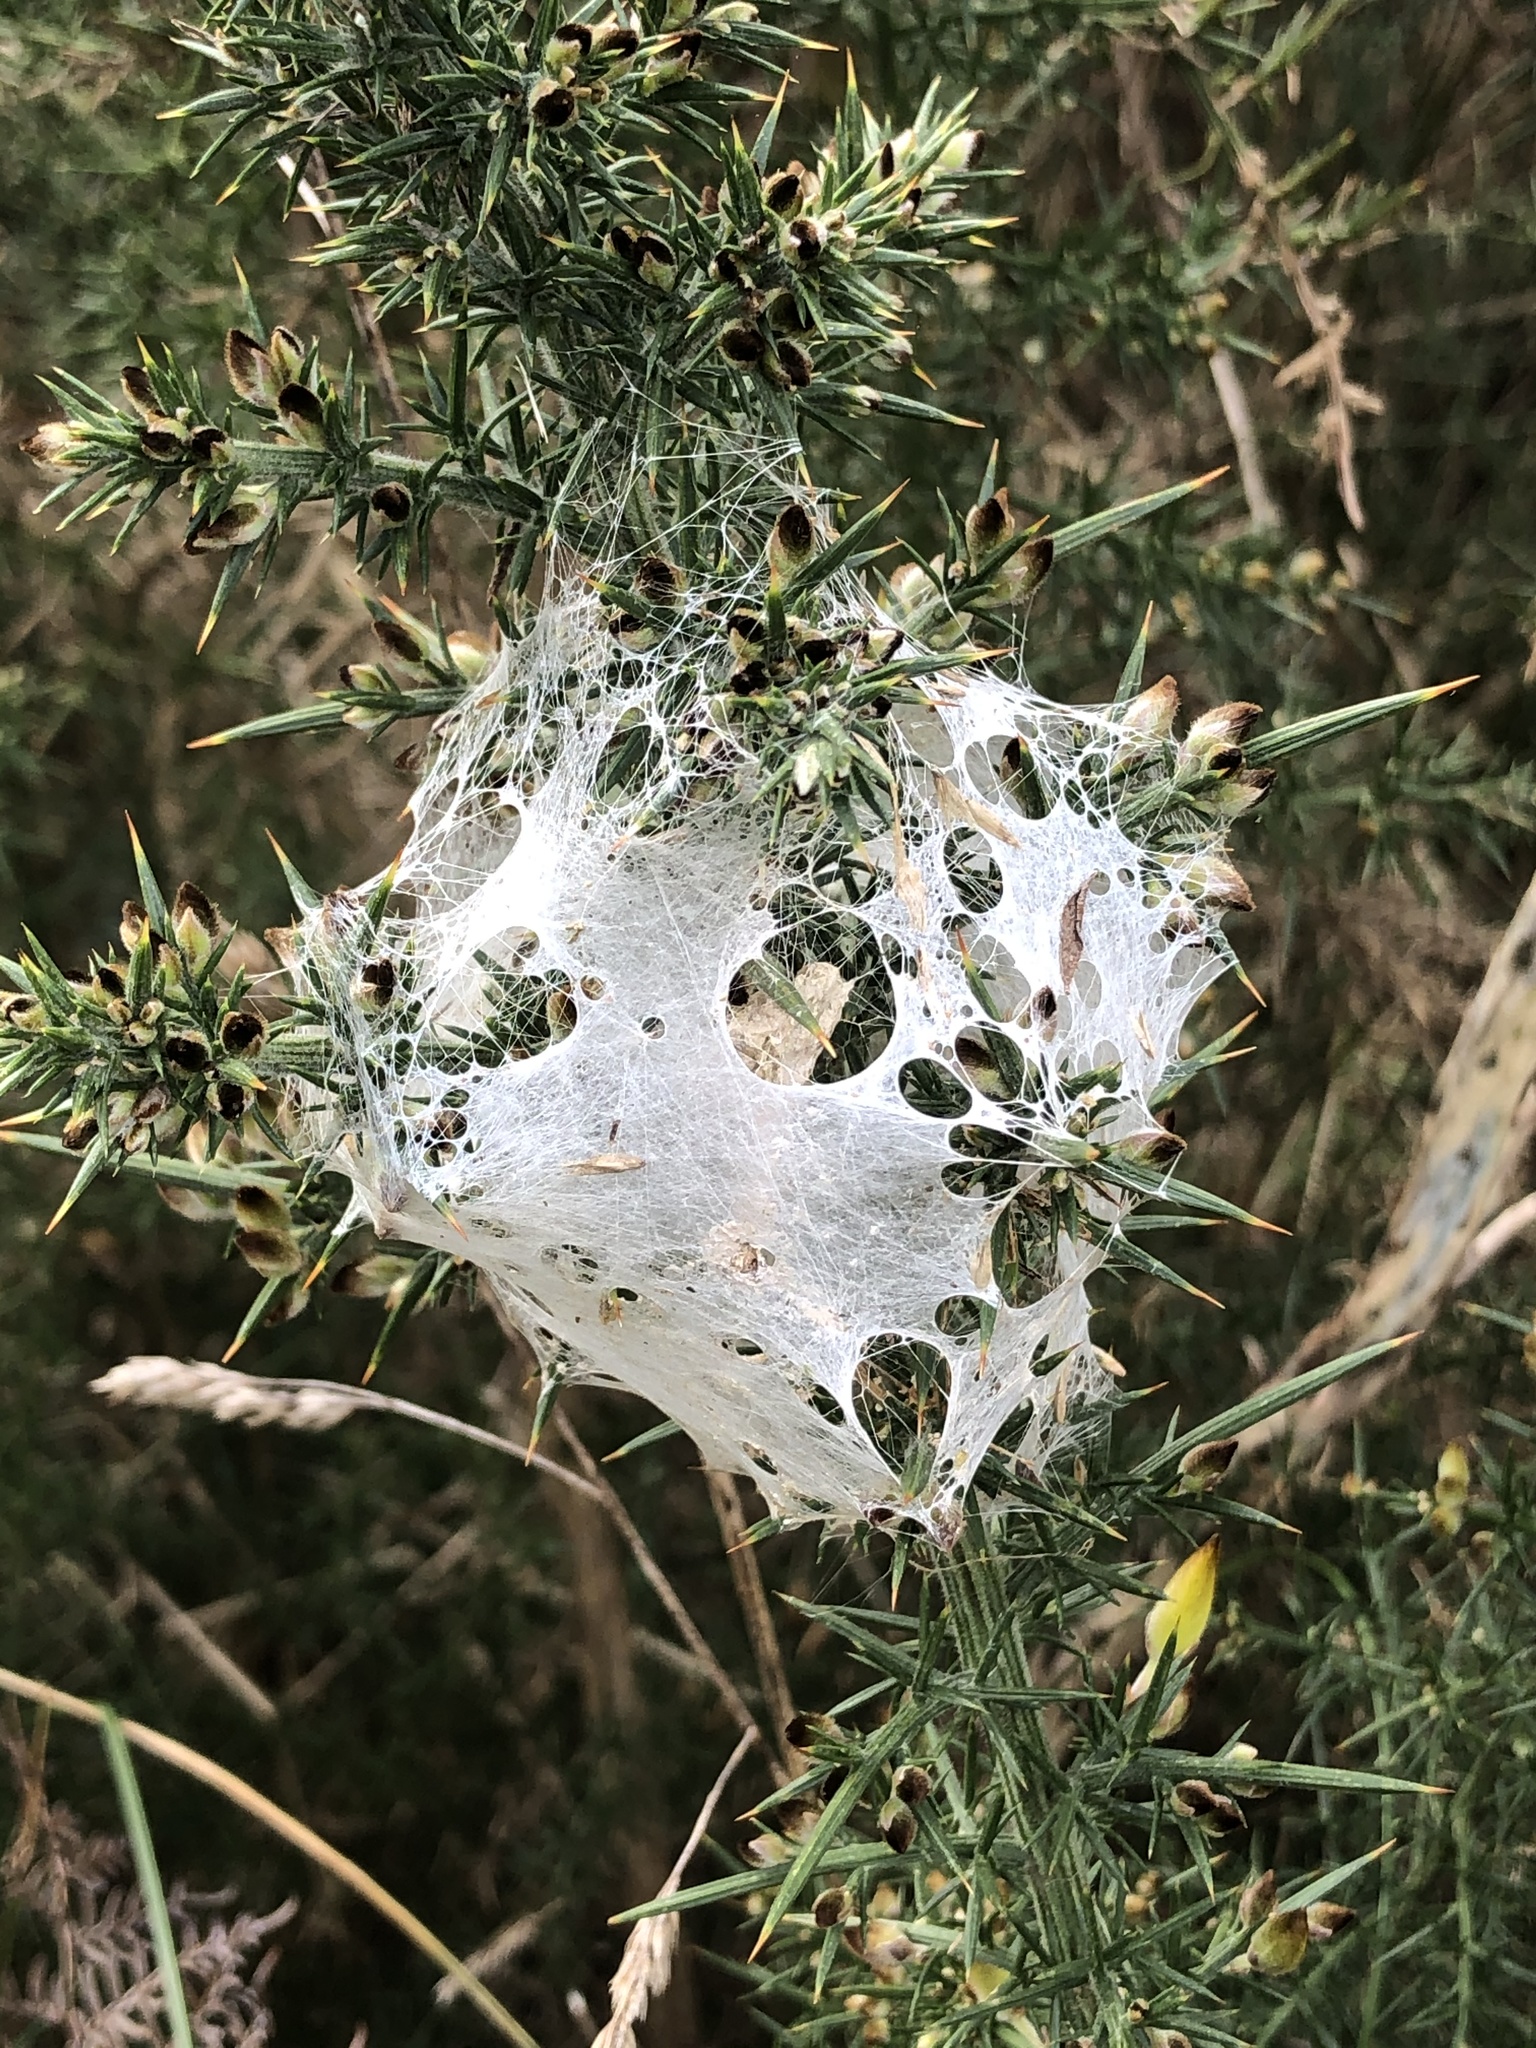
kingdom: Animalia
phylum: Arthropoda
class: Arachnida
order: Araneae
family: Pisauridae
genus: Dolomedes
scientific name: Dolomedes minor
